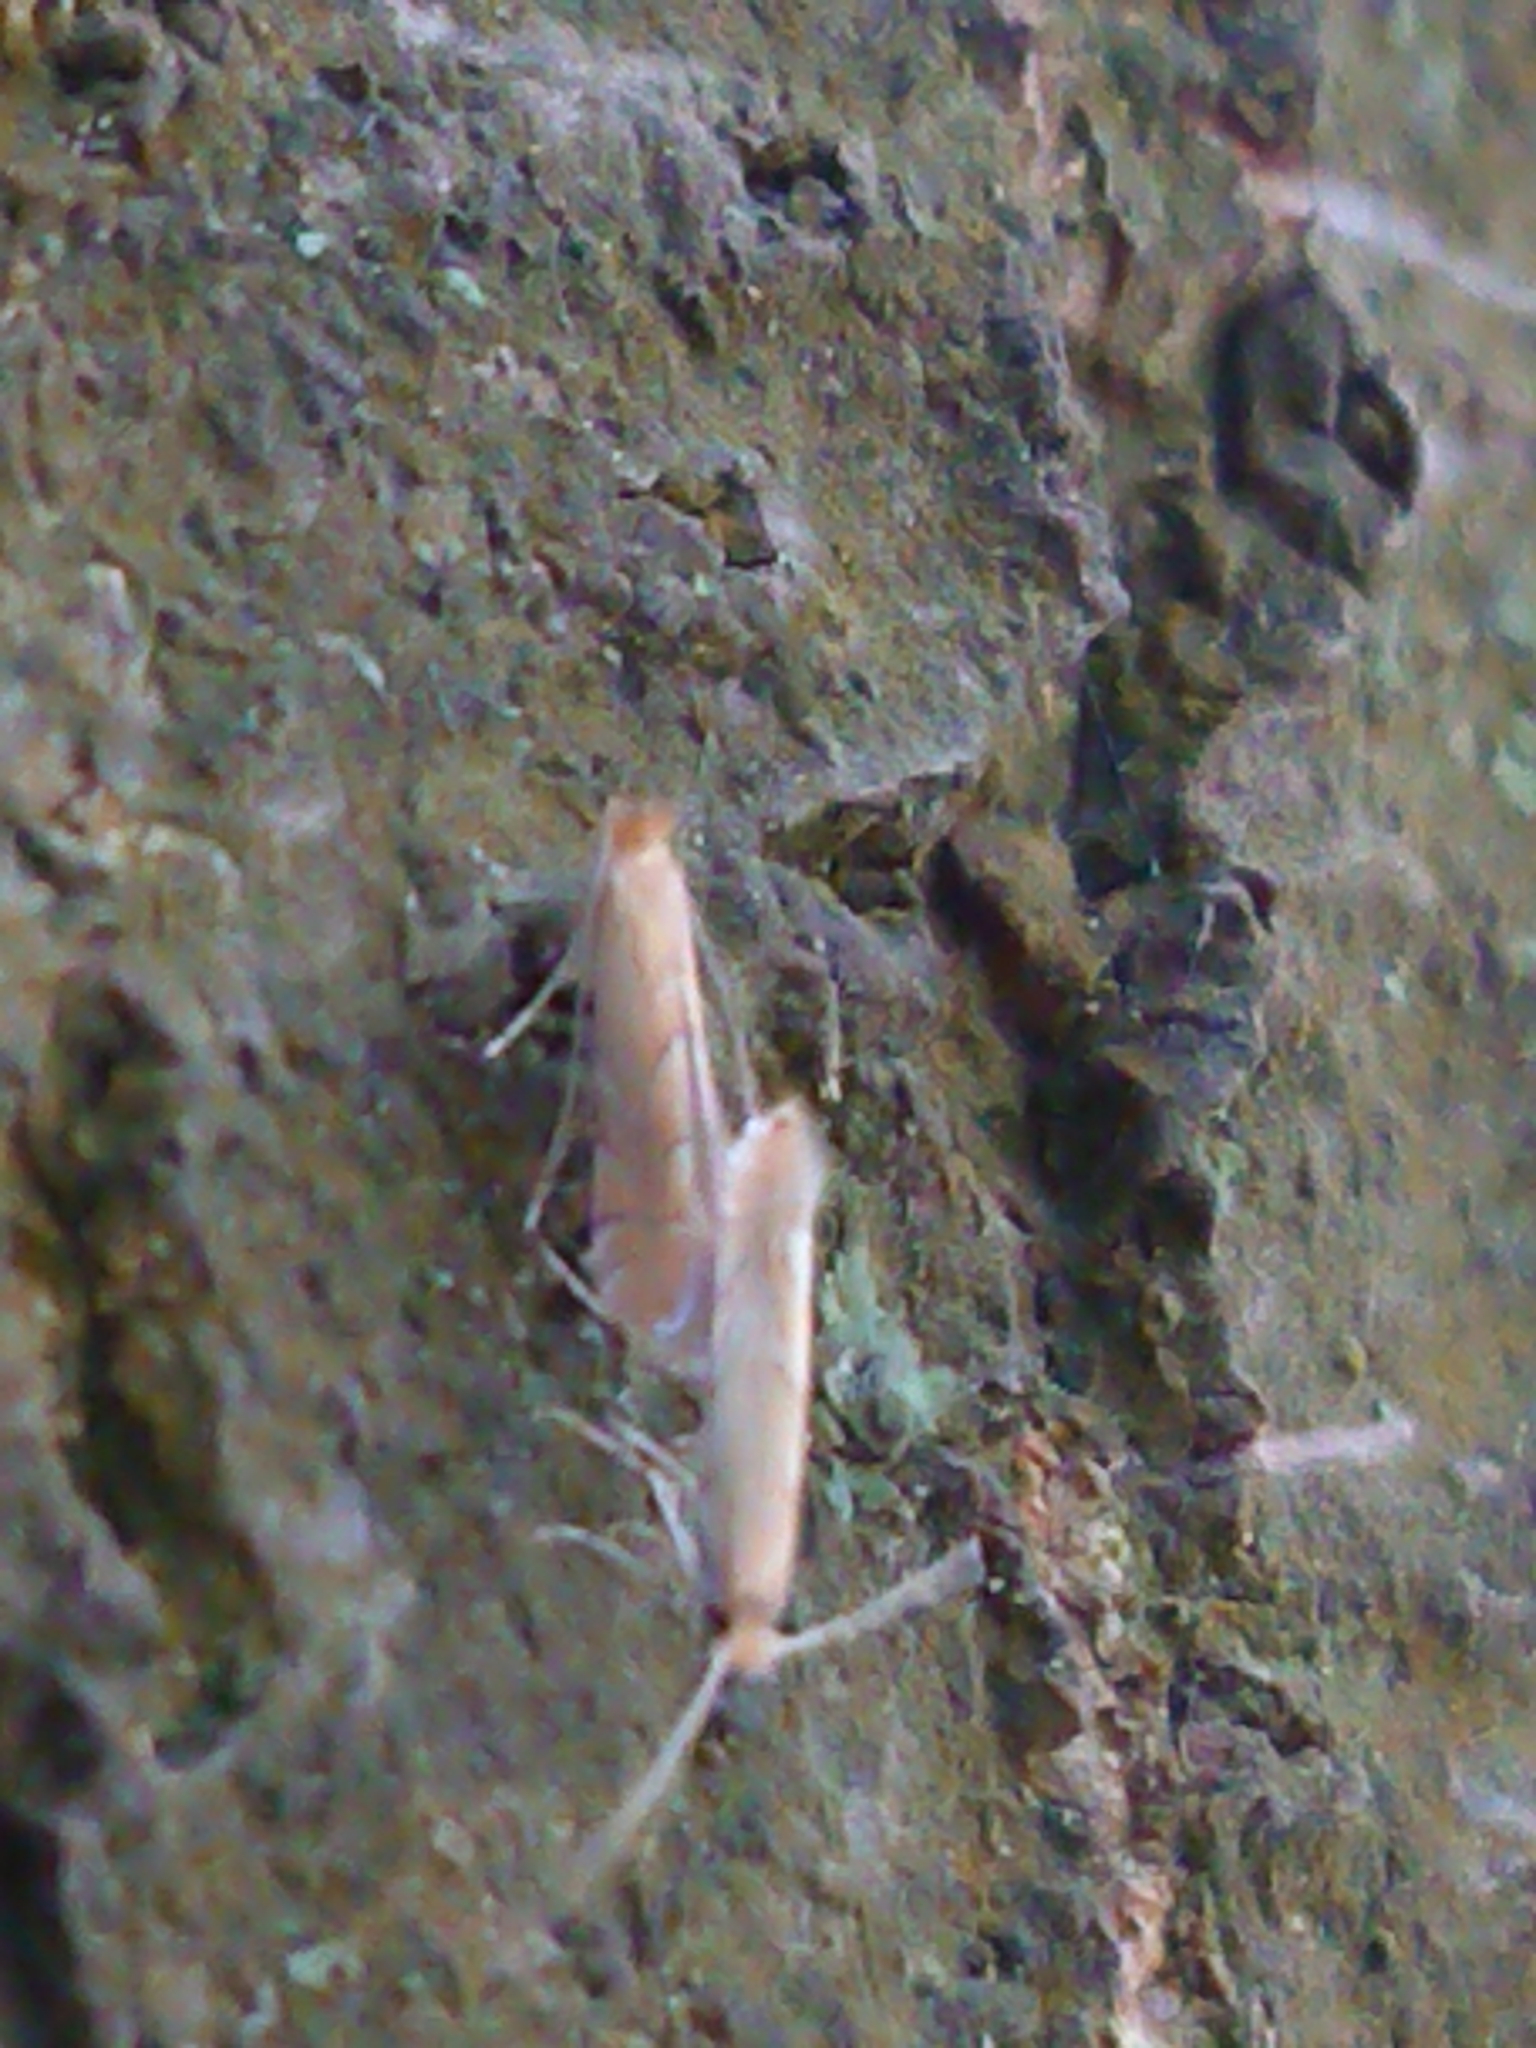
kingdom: Animalia
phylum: Arthropoda
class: Insecta
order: Lepidoptera
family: Gracillariidae
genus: Phyllonorycter
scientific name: Phyllonorycter messaniella
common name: Garden midget
